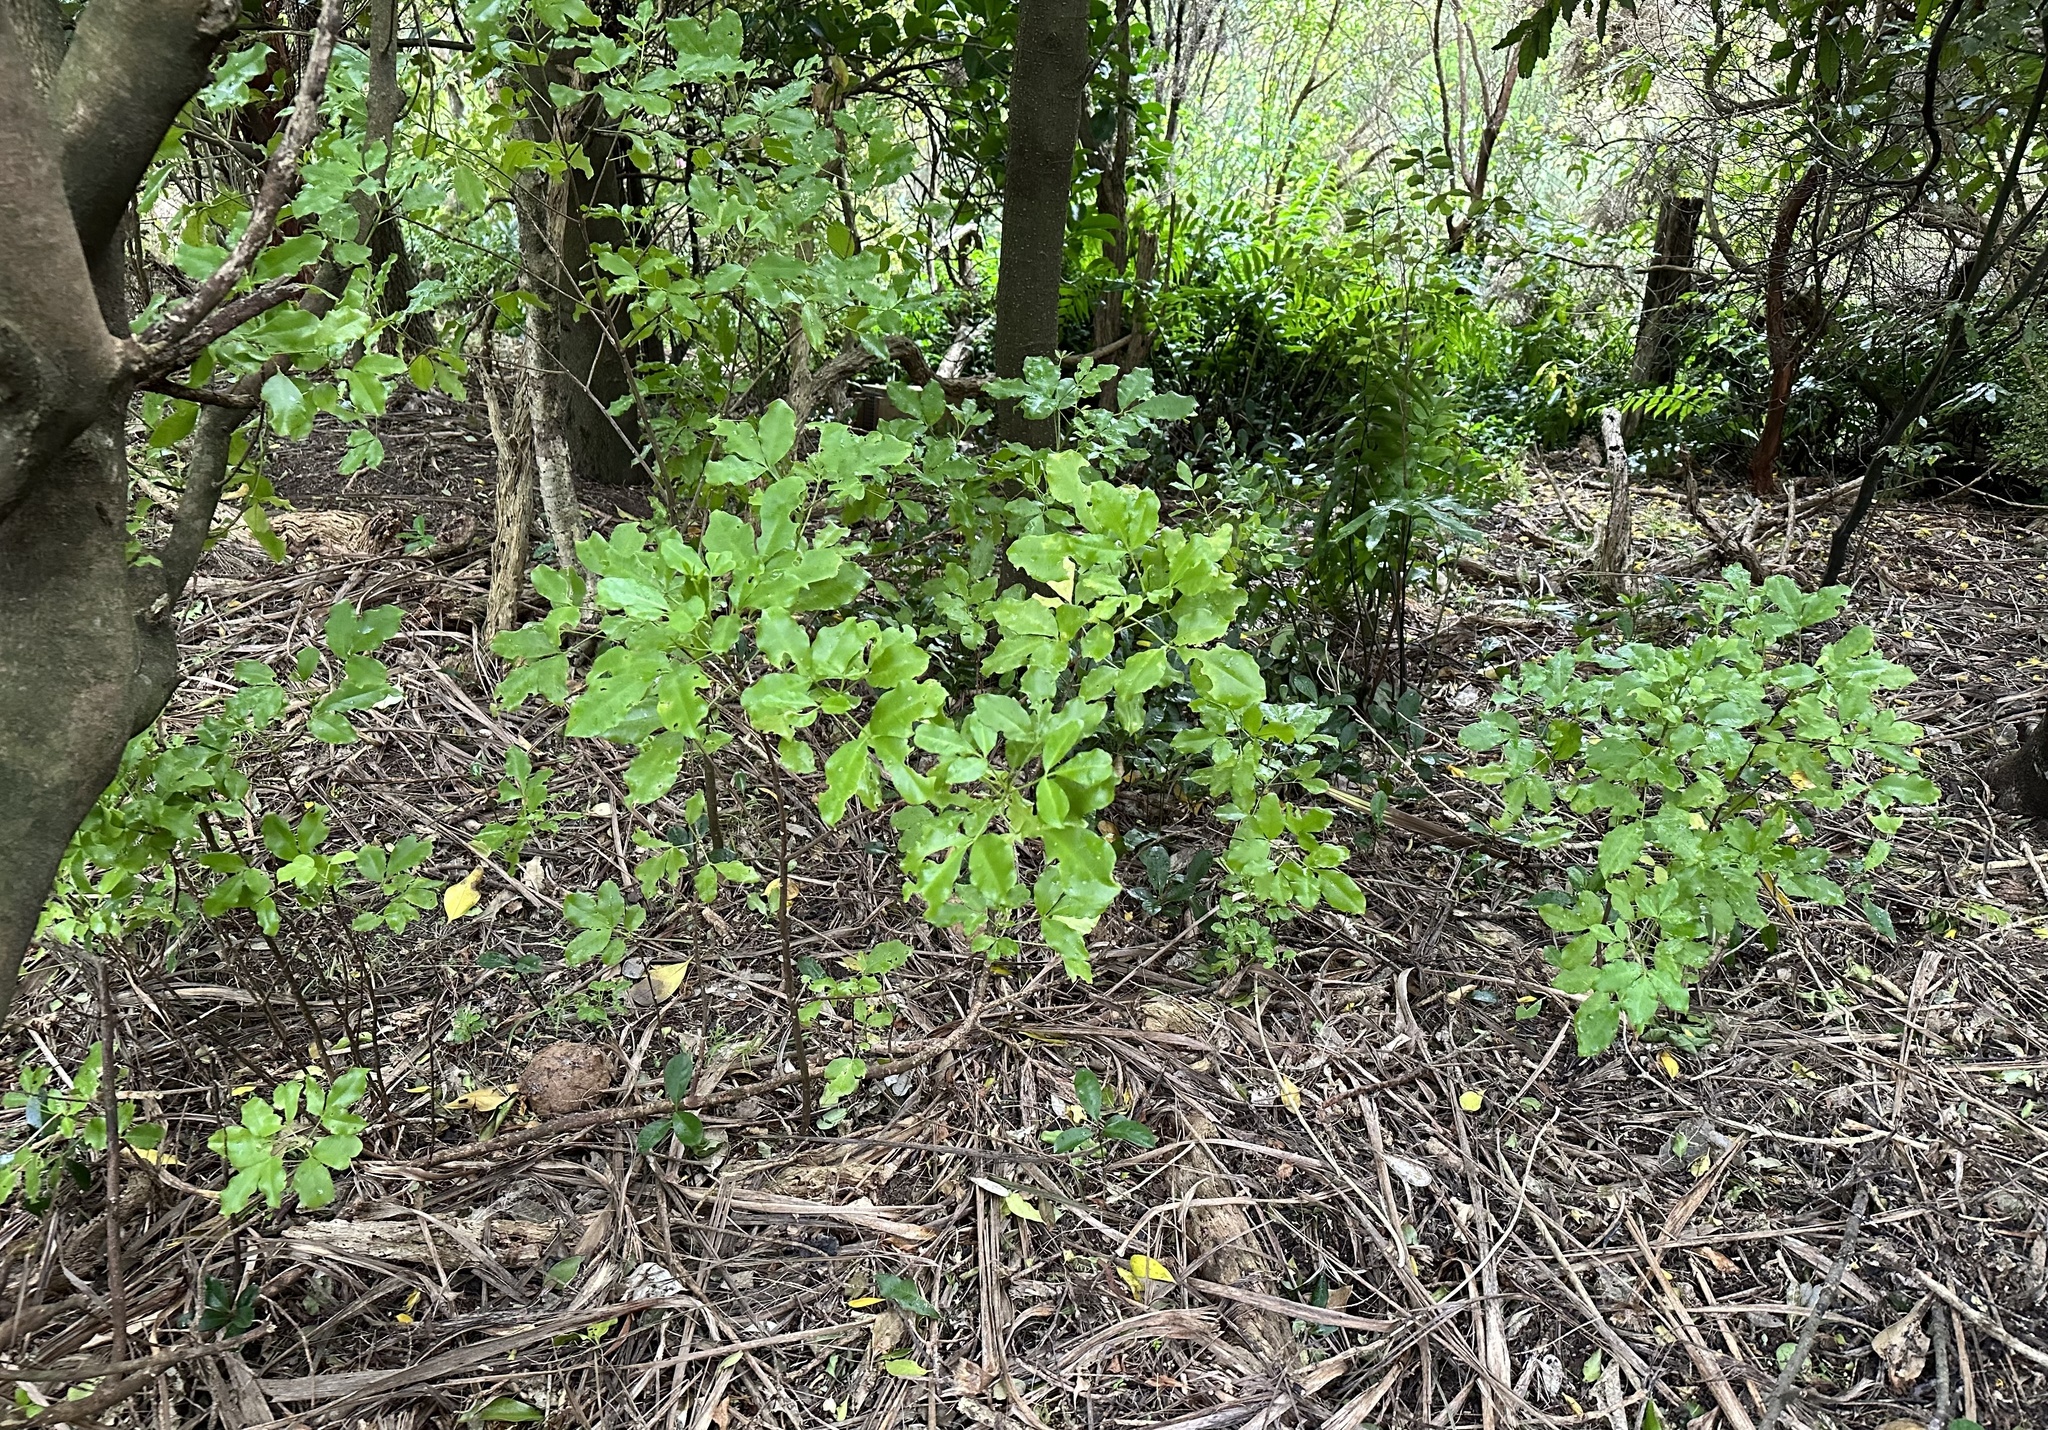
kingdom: Plantae
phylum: Tracheophyta
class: Magnoliopsida
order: Sapindales
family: Rutaceae
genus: Melicope
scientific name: Melicope ternata
